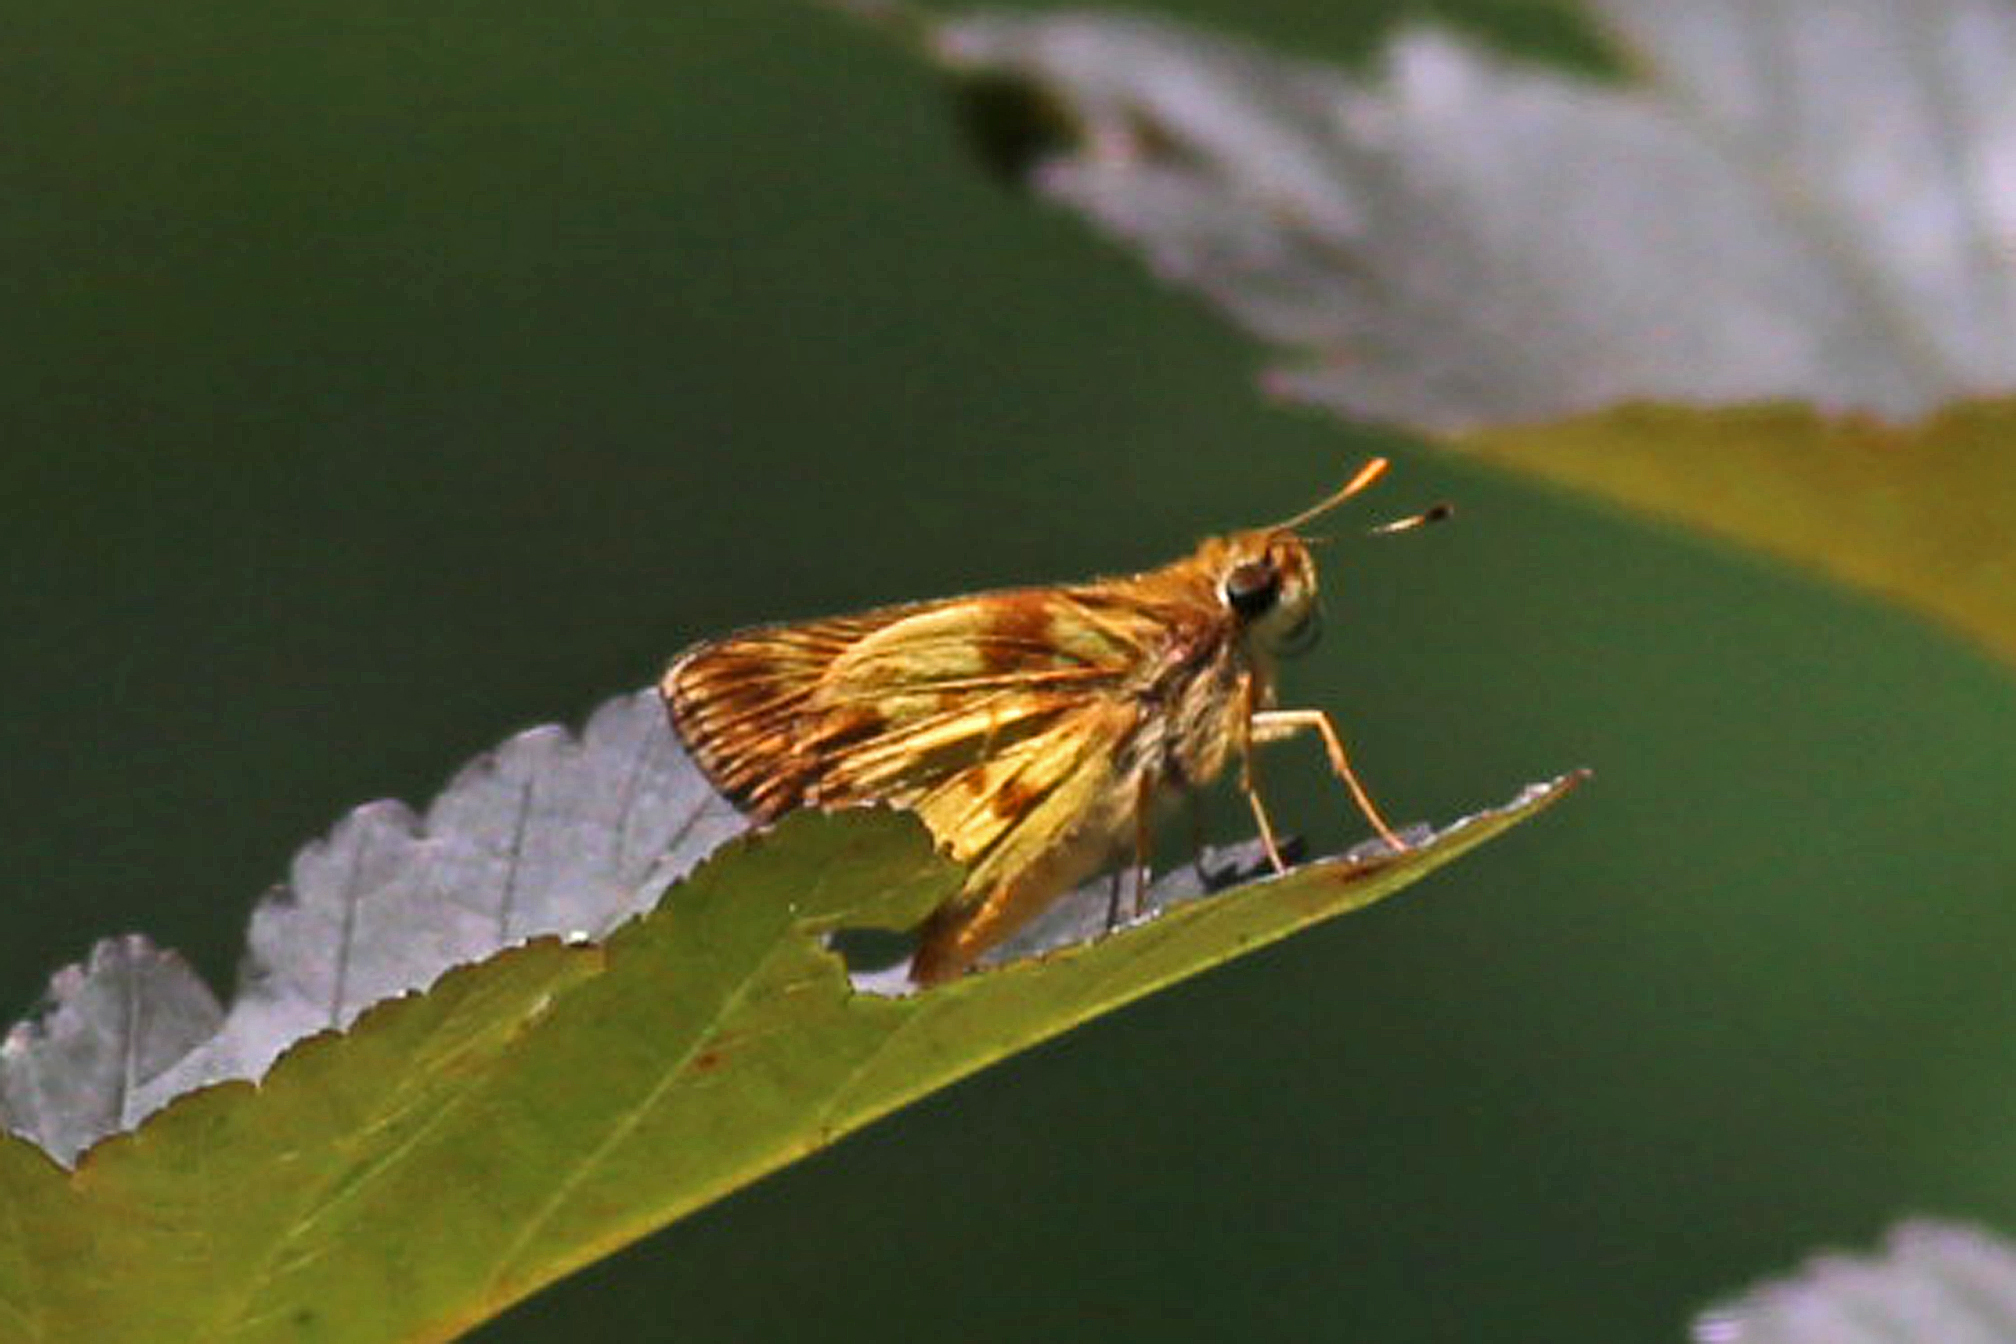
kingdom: Animalia
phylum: Arthropoda
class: Insecta
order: Lepidoptera
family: Hesperiidae
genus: Lon
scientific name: Lon zabulon
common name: Zabulon skipper
